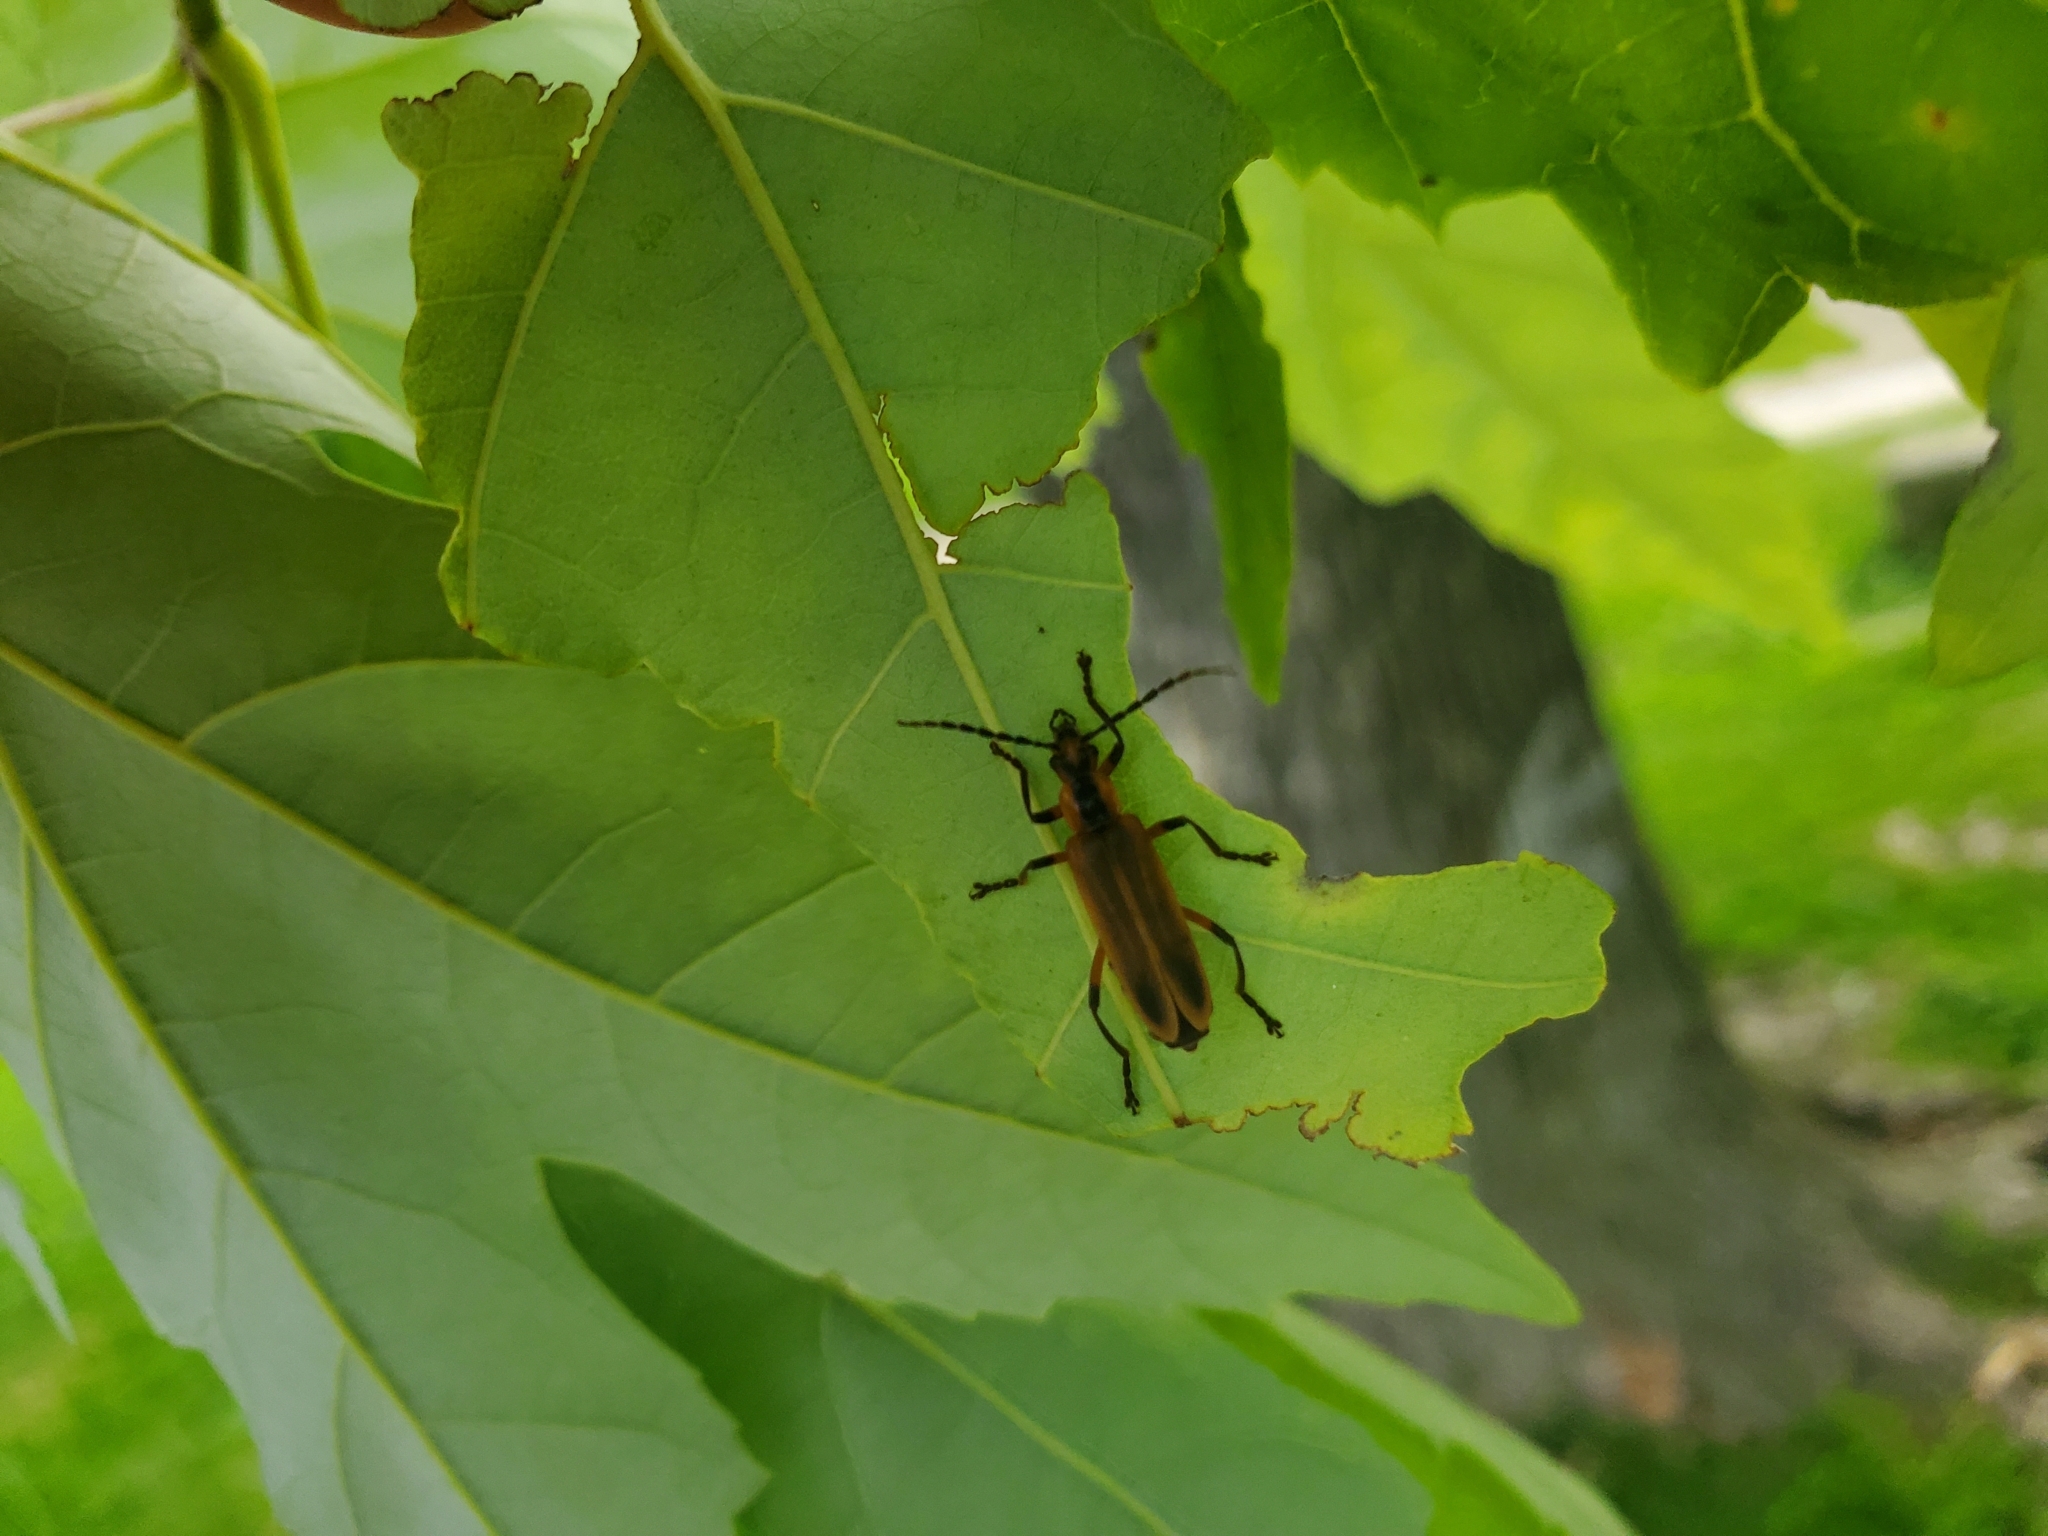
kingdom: Animalia
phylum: Arthropoda
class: Insecta
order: Coleoptera
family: Cantharidae
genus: Chauliognathus
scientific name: Chauliognathus marginatus
